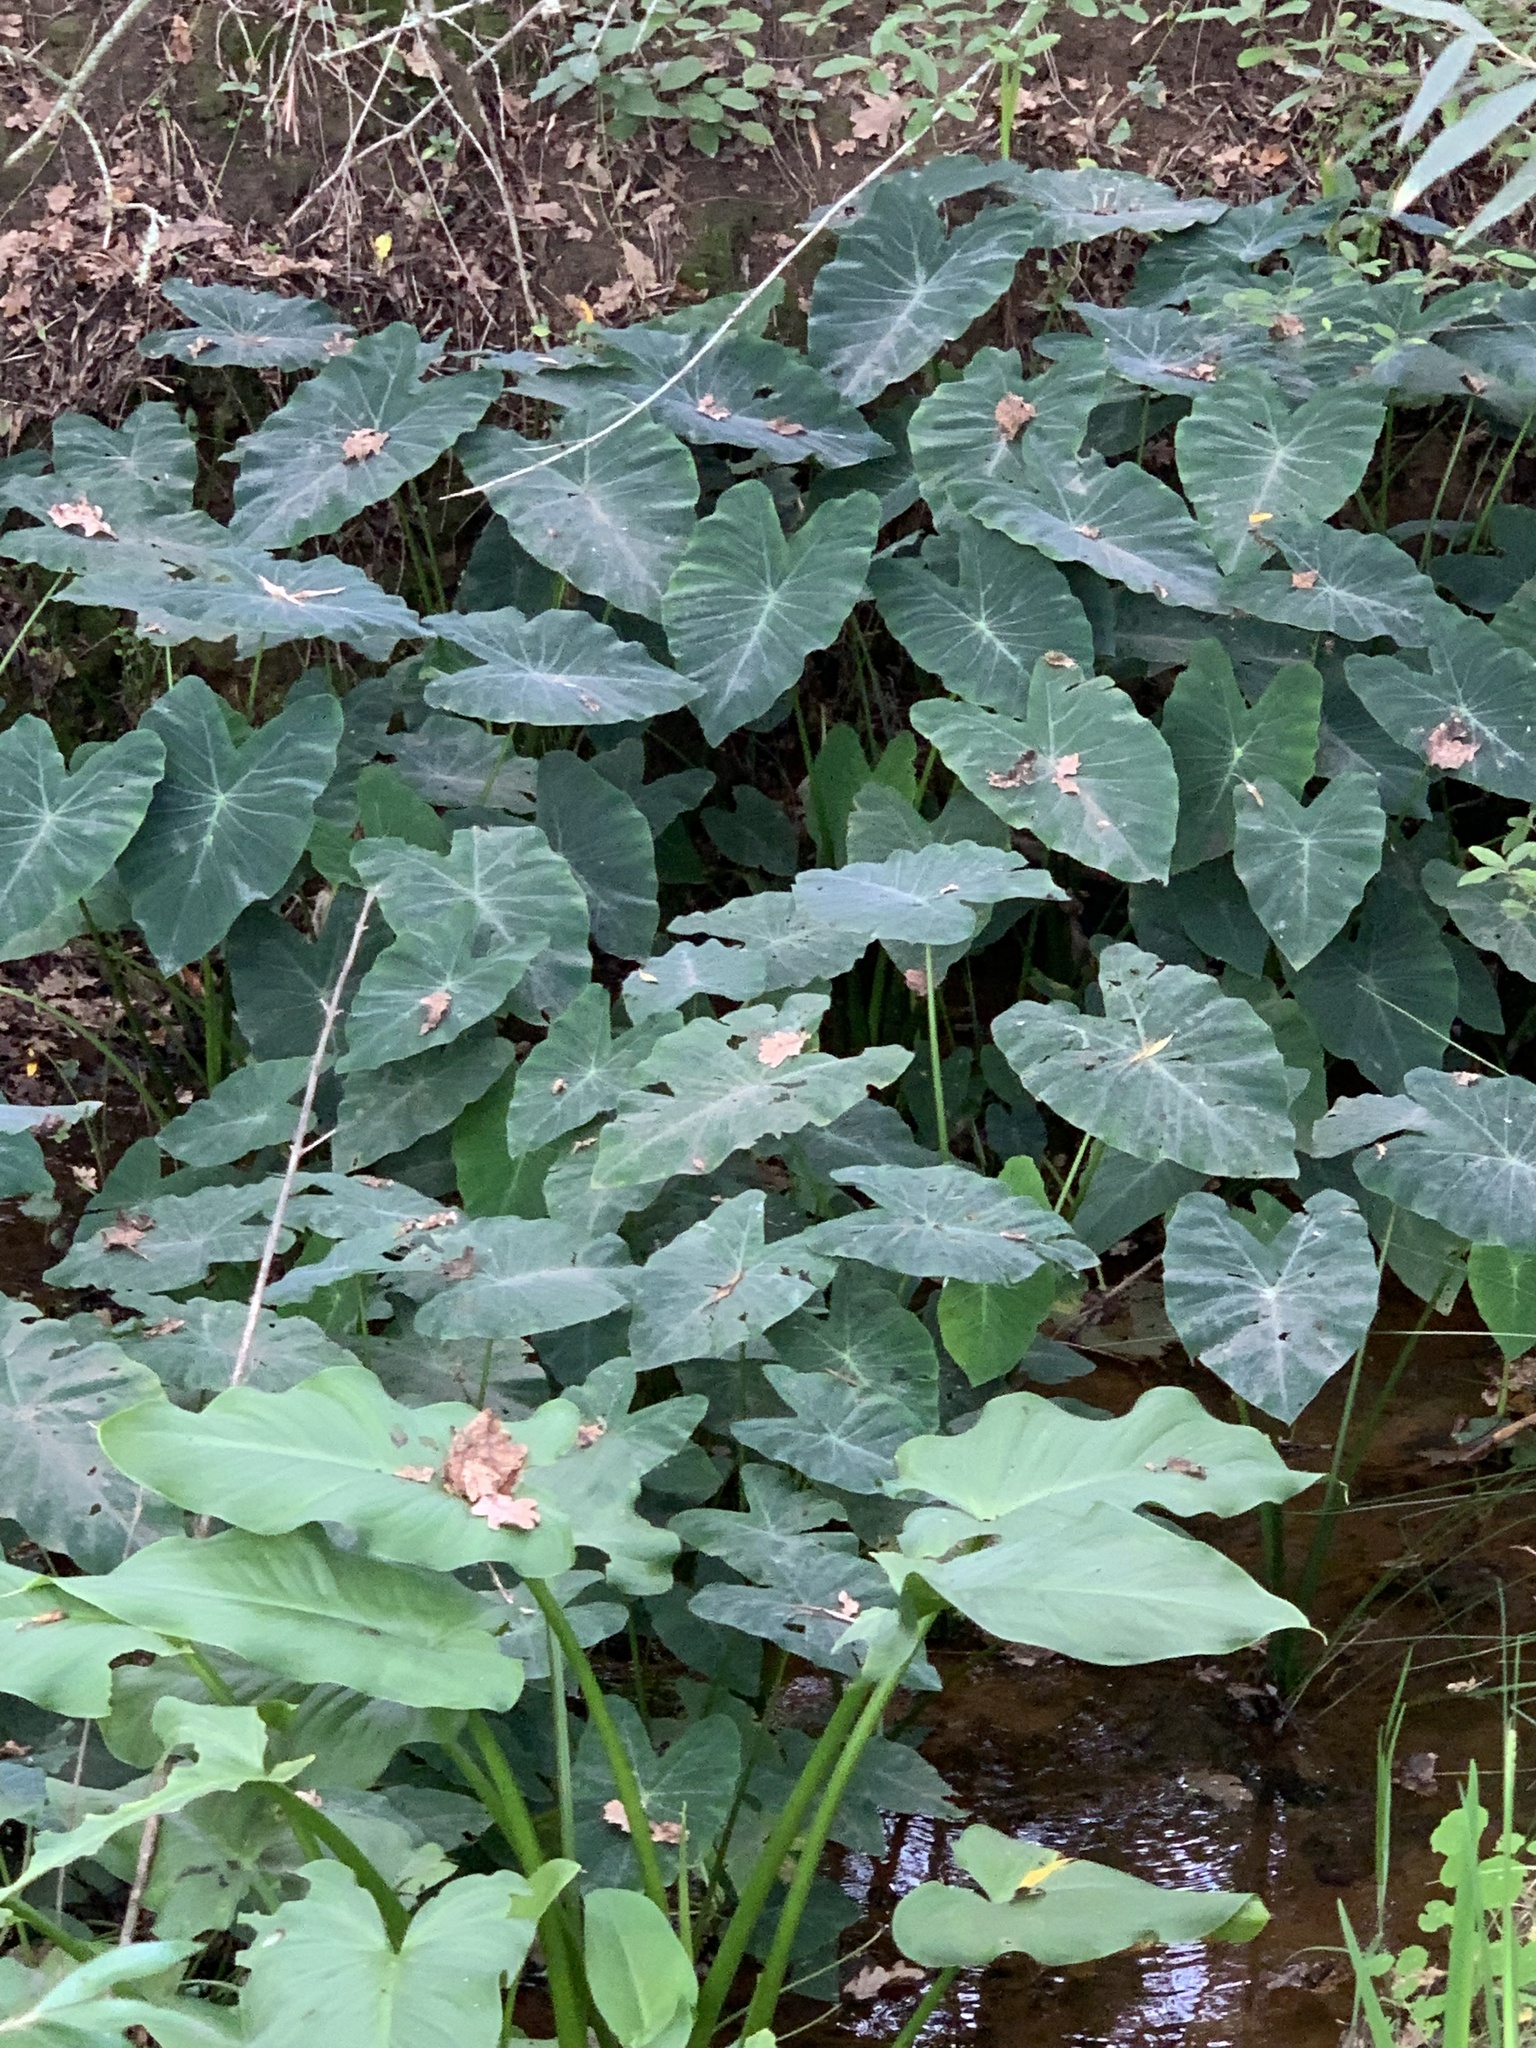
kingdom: Plantae
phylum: Tracheophyta
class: Liliopsida
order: Alismatales
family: Araceae
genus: Colocasia
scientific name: Colocasia esculenta
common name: Taro
